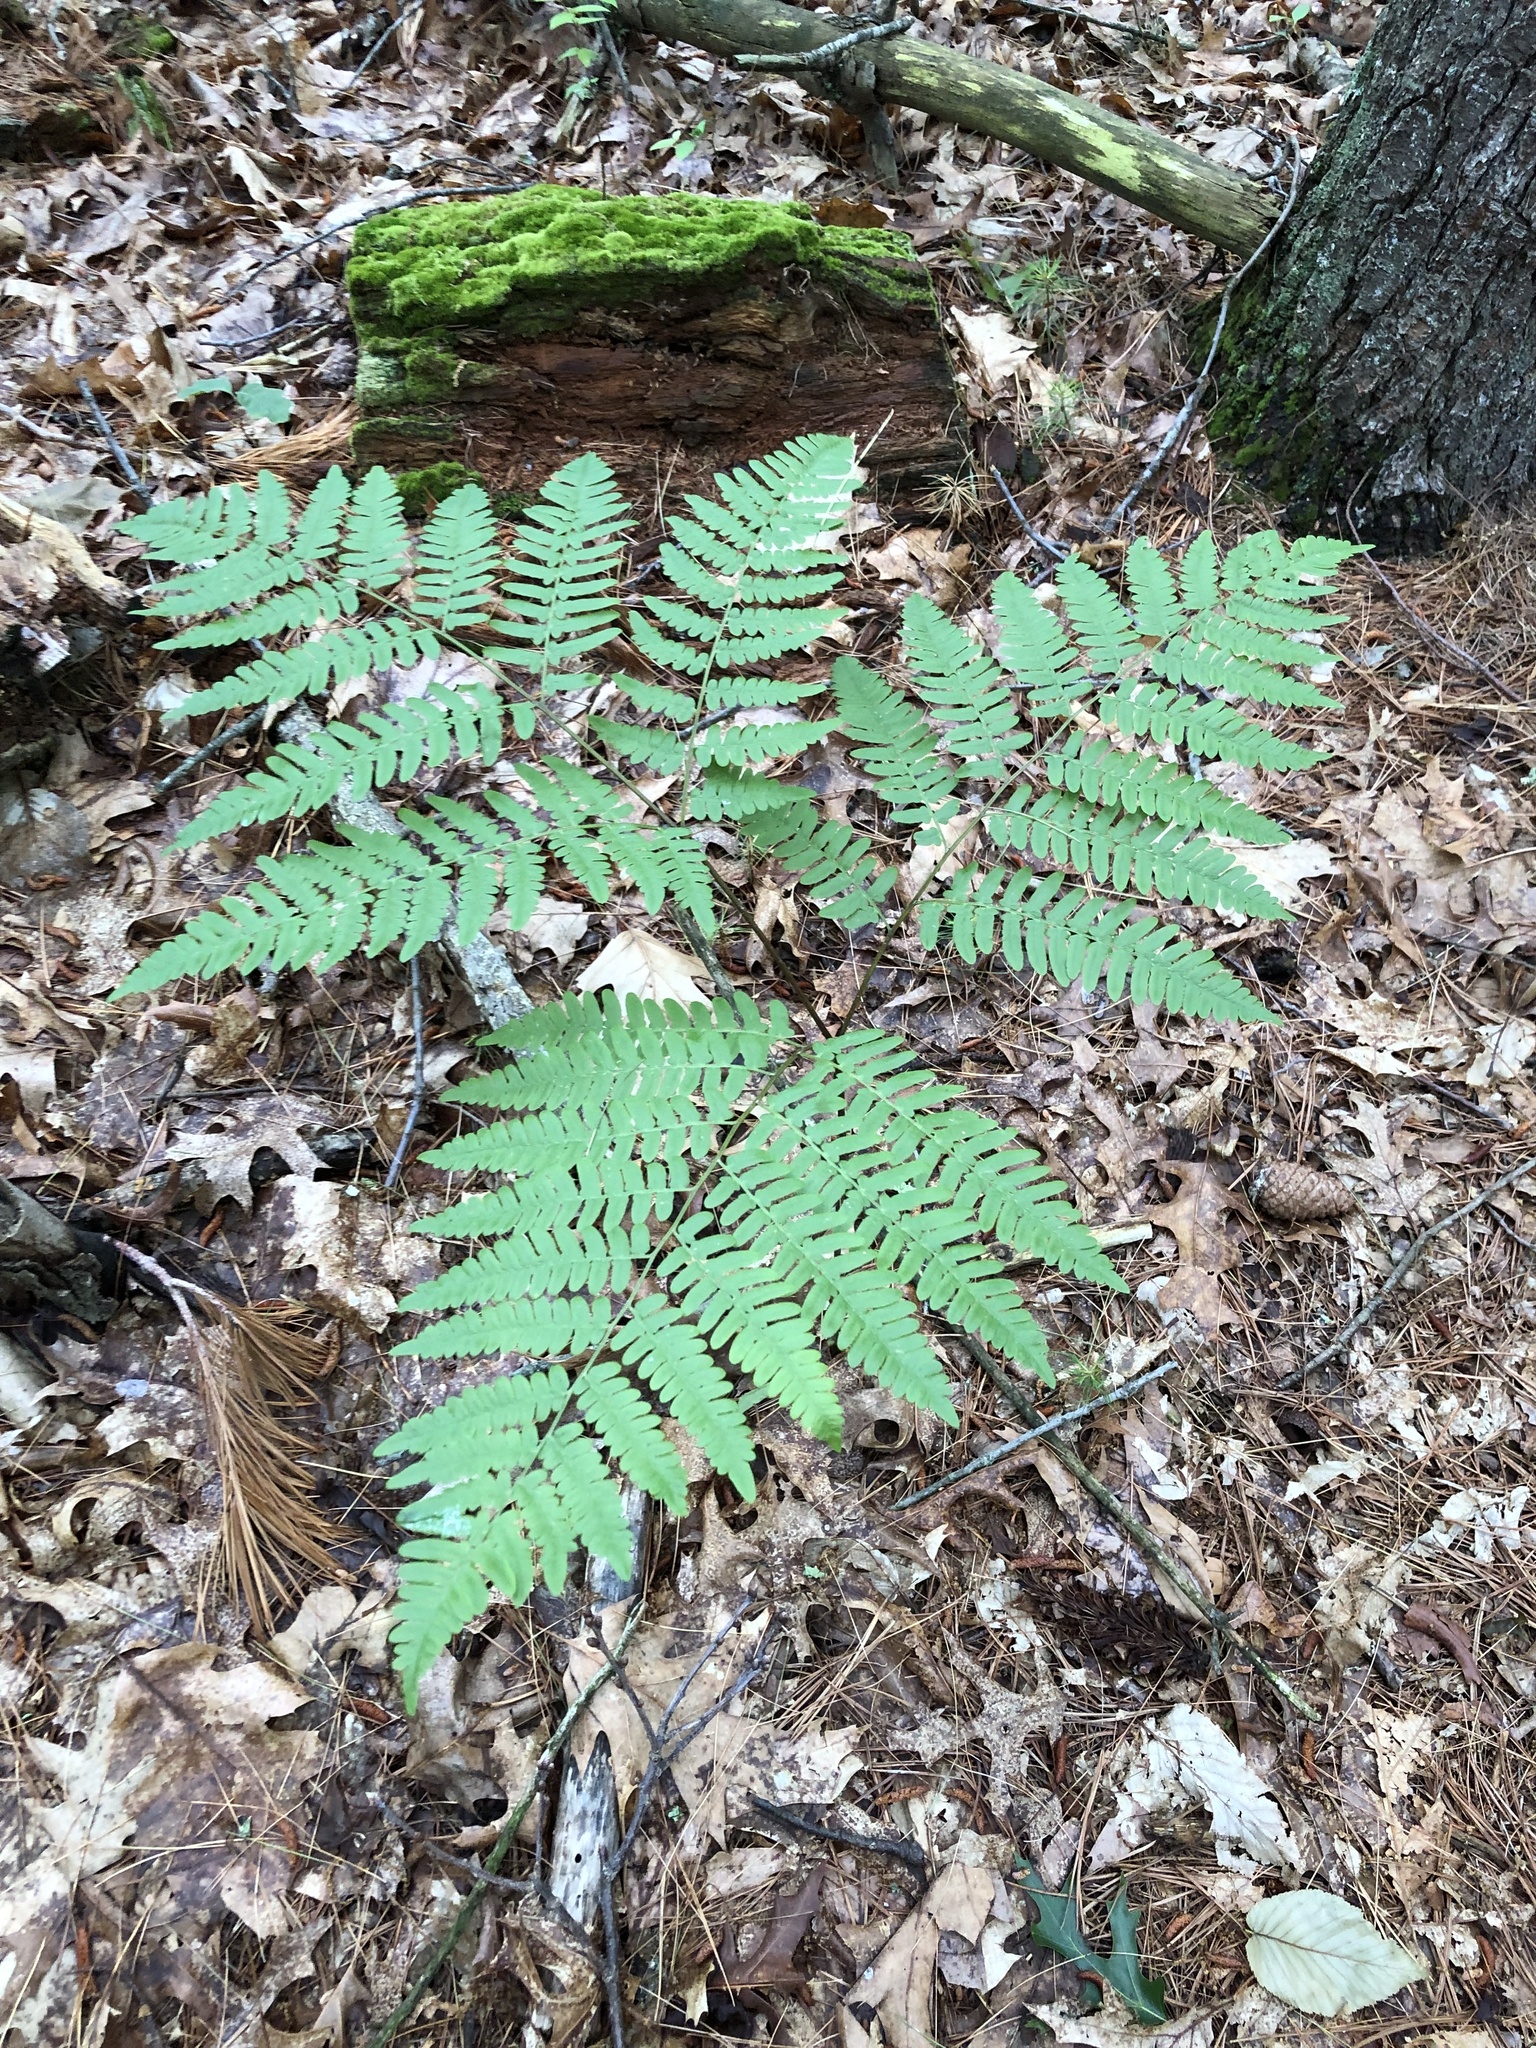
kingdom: Plantae
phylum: Tracheophyta
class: Polypodiopsida
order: Polypodiales
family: Dennstaedtiaceae
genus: Pteridium
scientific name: Pteridium aquilinum
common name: Bracken
